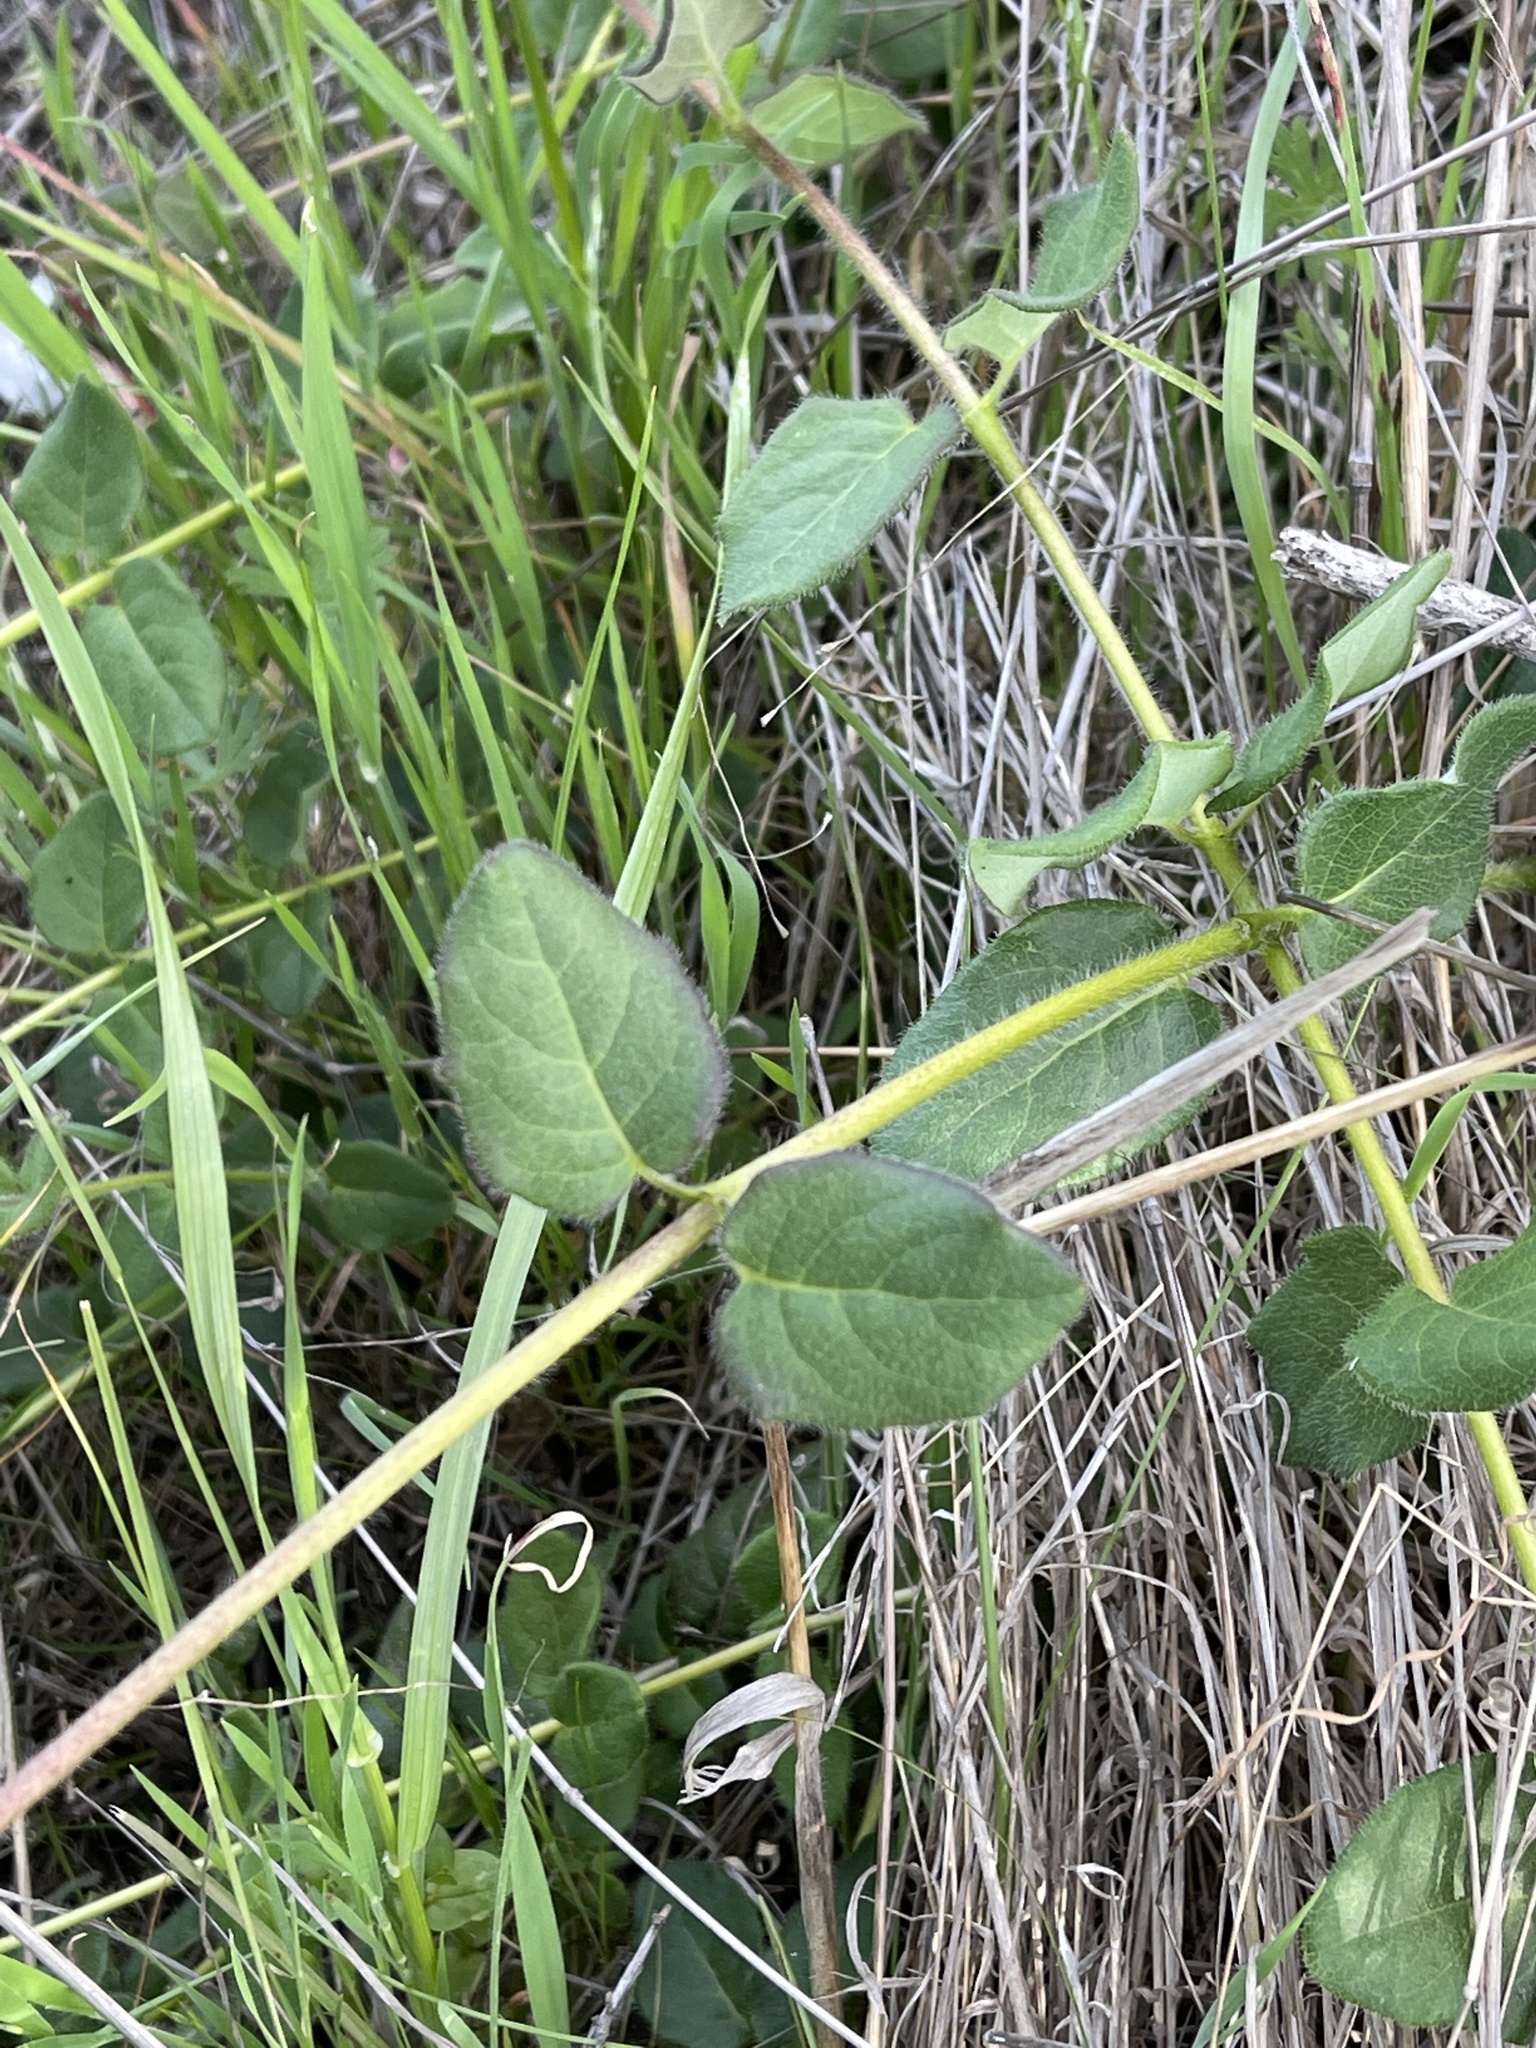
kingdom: Plantae
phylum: Tracheophyta
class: Magnoliopsida
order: Dipsacales
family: Caprifoliaceae
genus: Lonicera
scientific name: Lonicera hispidula
